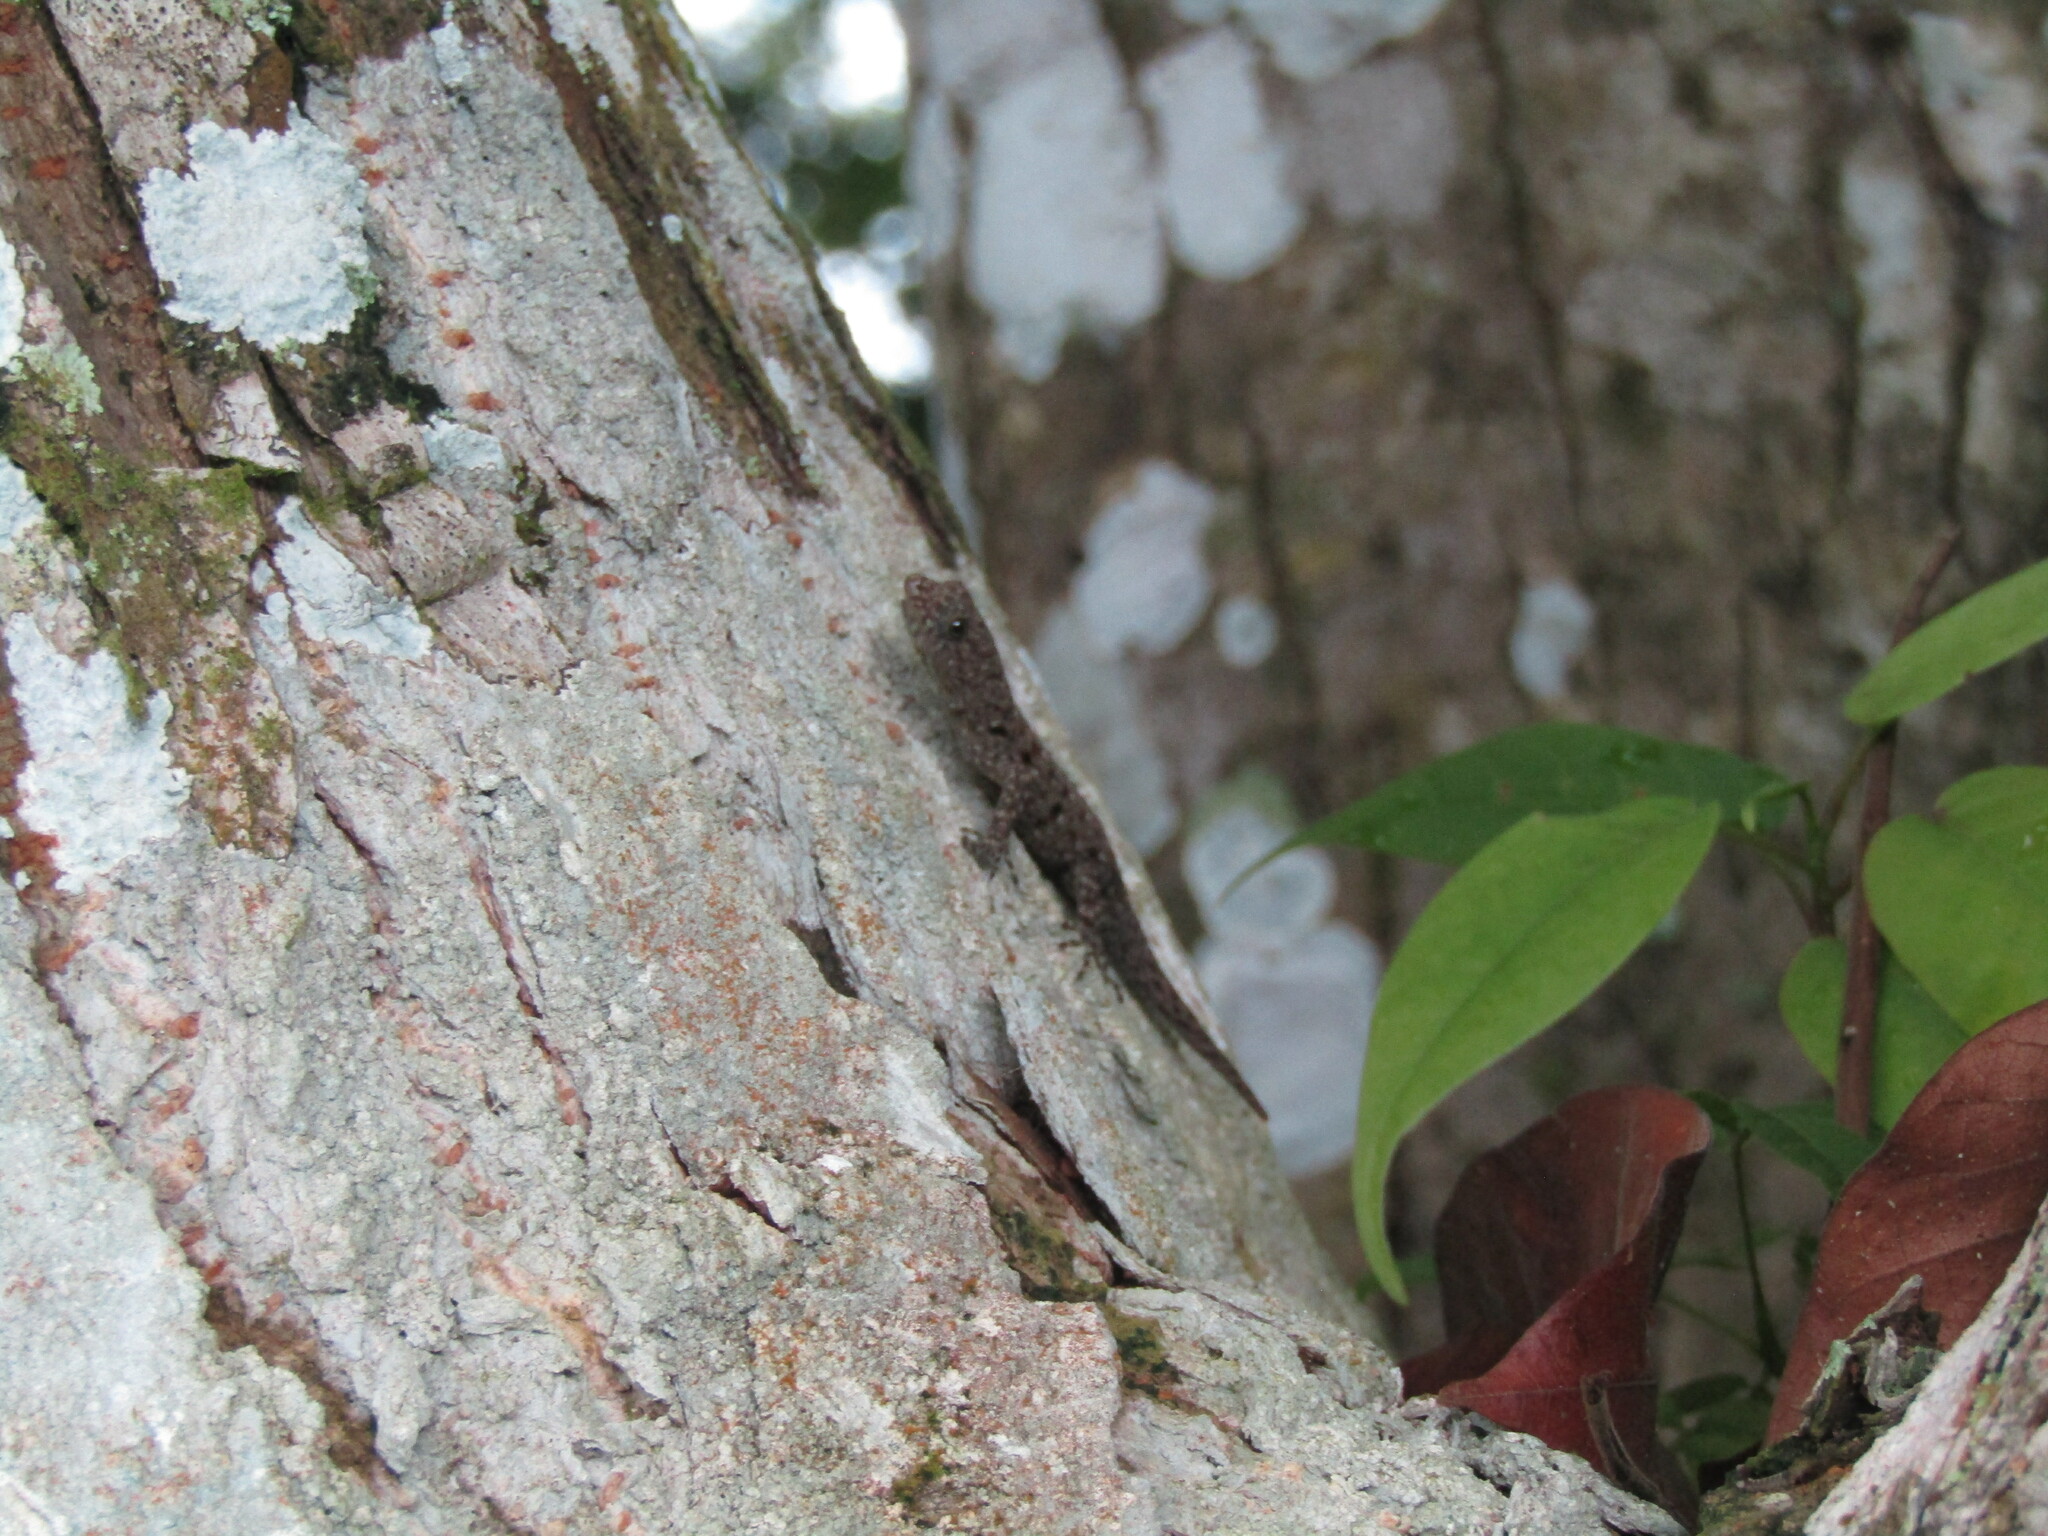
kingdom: Animalia
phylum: Chordata
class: Squamata
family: Sphaerodactylidae
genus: Gonatodes
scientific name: Gonatodes albogularis
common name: Yellow-headed gecko
